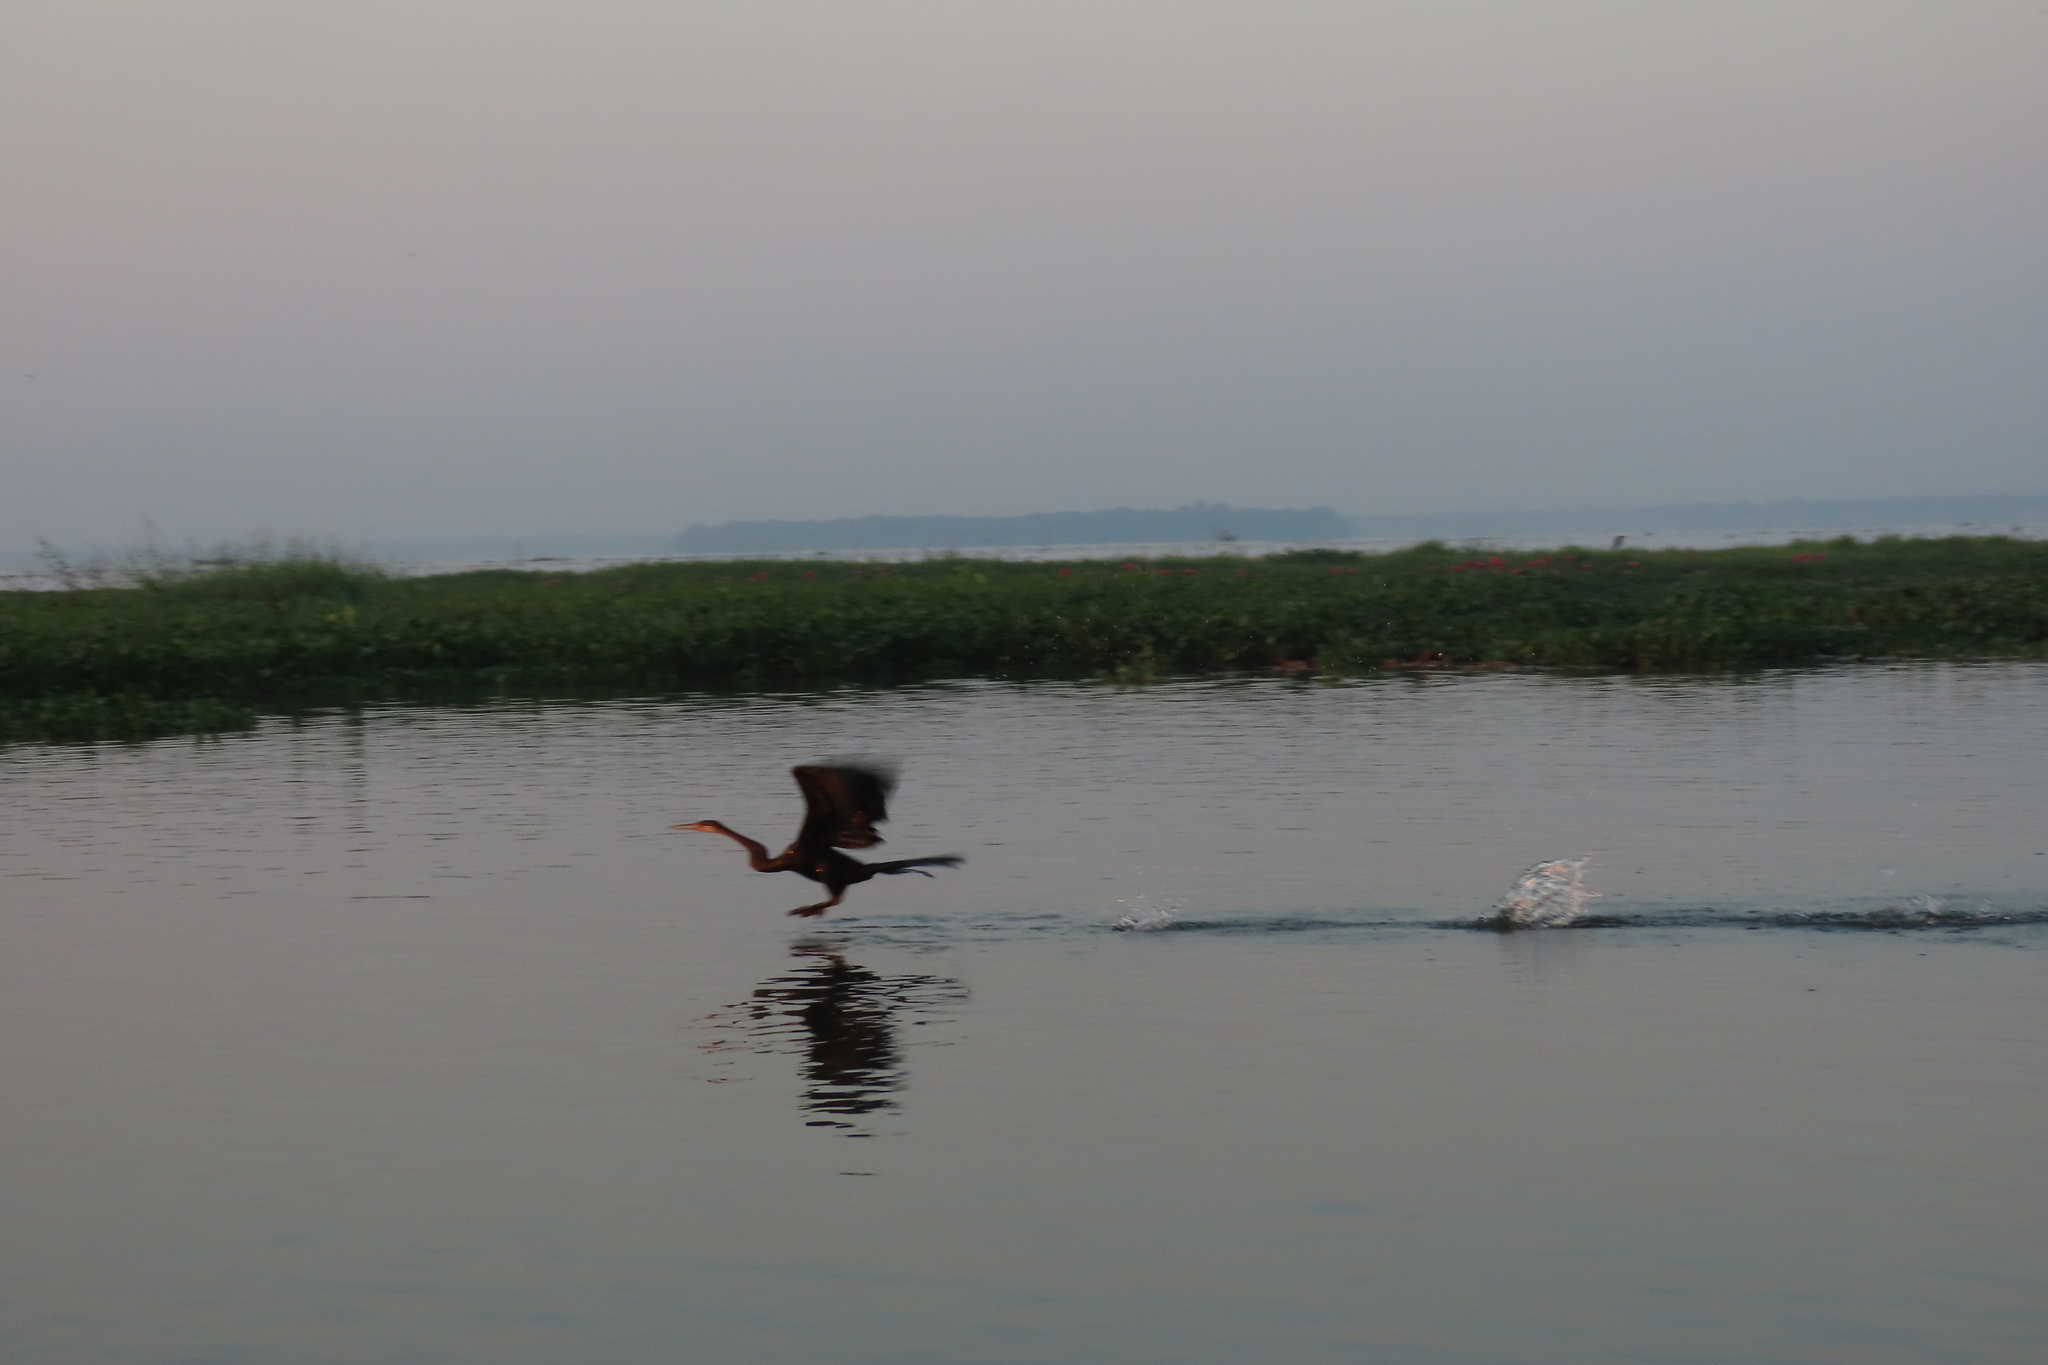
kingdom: Animalia
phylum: Chordata
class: Aves
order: Suliformes
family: Anhingidae
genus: Anhinga
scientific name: Anhinga melanogaster
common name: Oriental darter
